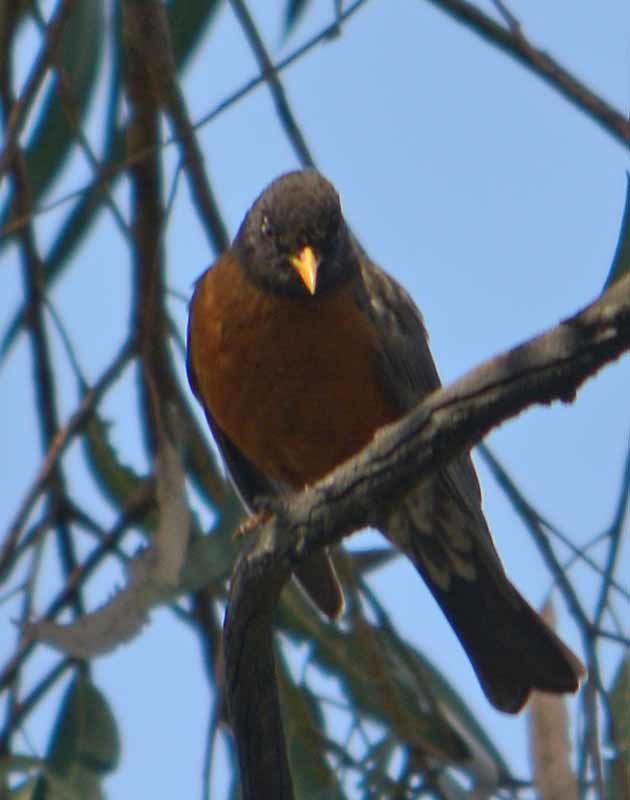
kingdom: Animalia
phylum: Chordata
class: Aves
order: Passeriformes
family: Turdidae
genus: Turdus
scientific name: Turdus migratorius
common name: American robin
